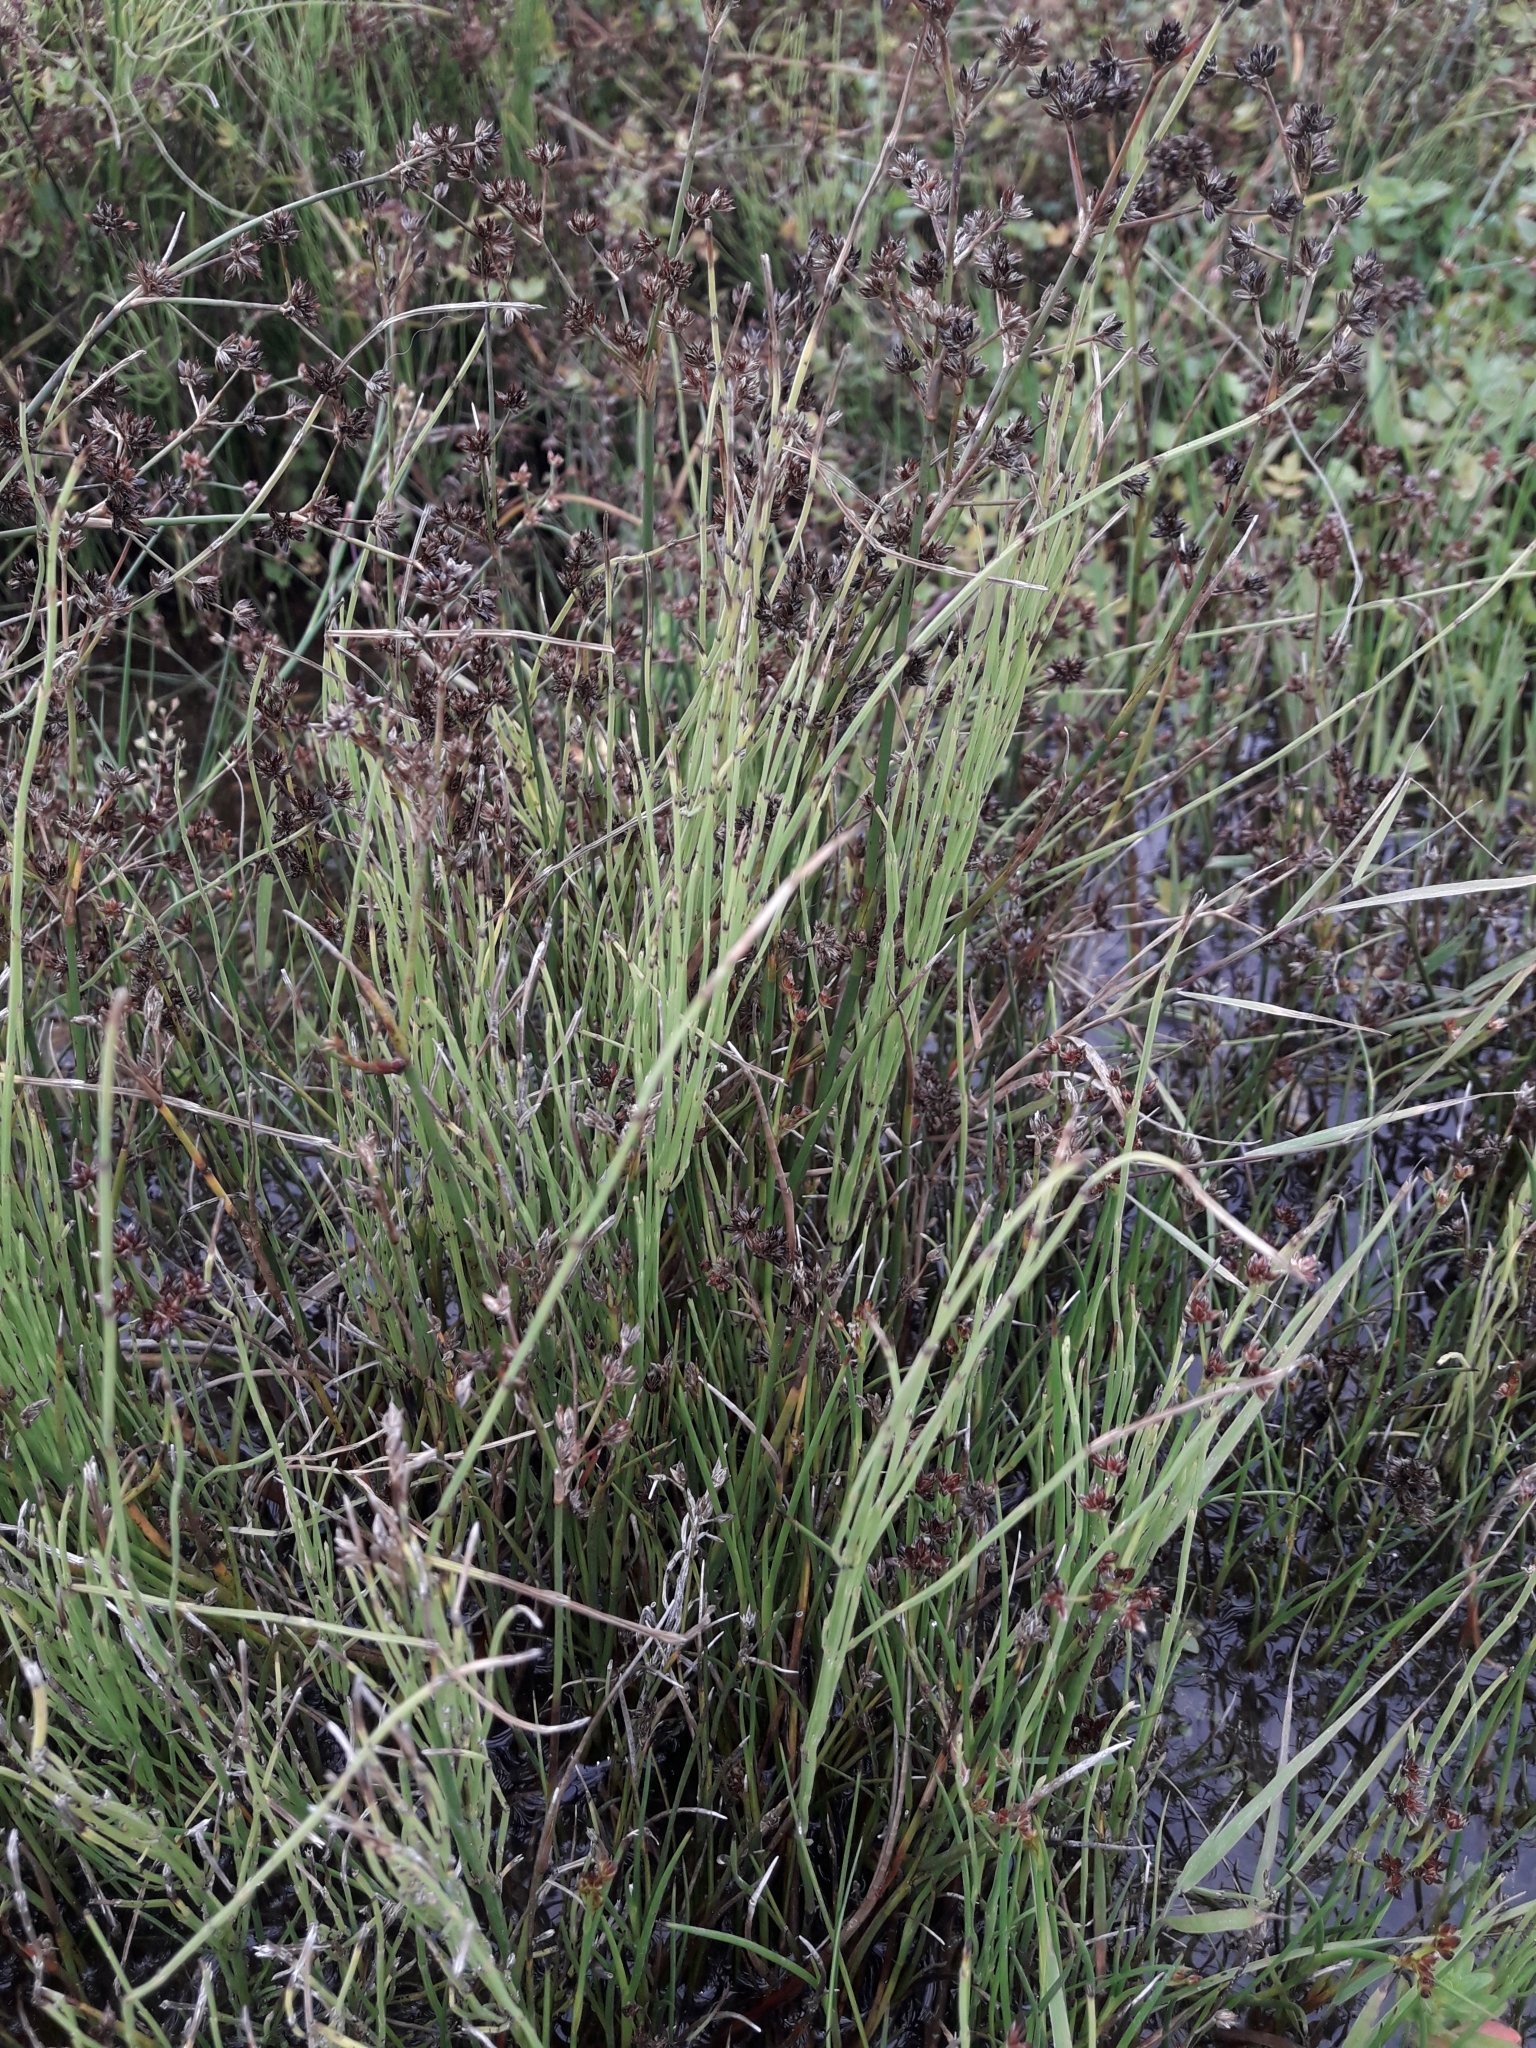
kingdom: Plantae
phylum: Tracheophyta
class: Polypodiopsida
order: Equisetales
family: Equisetaceae
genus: Equisetum
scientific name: Equisetum arvense
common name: Field horsetail
